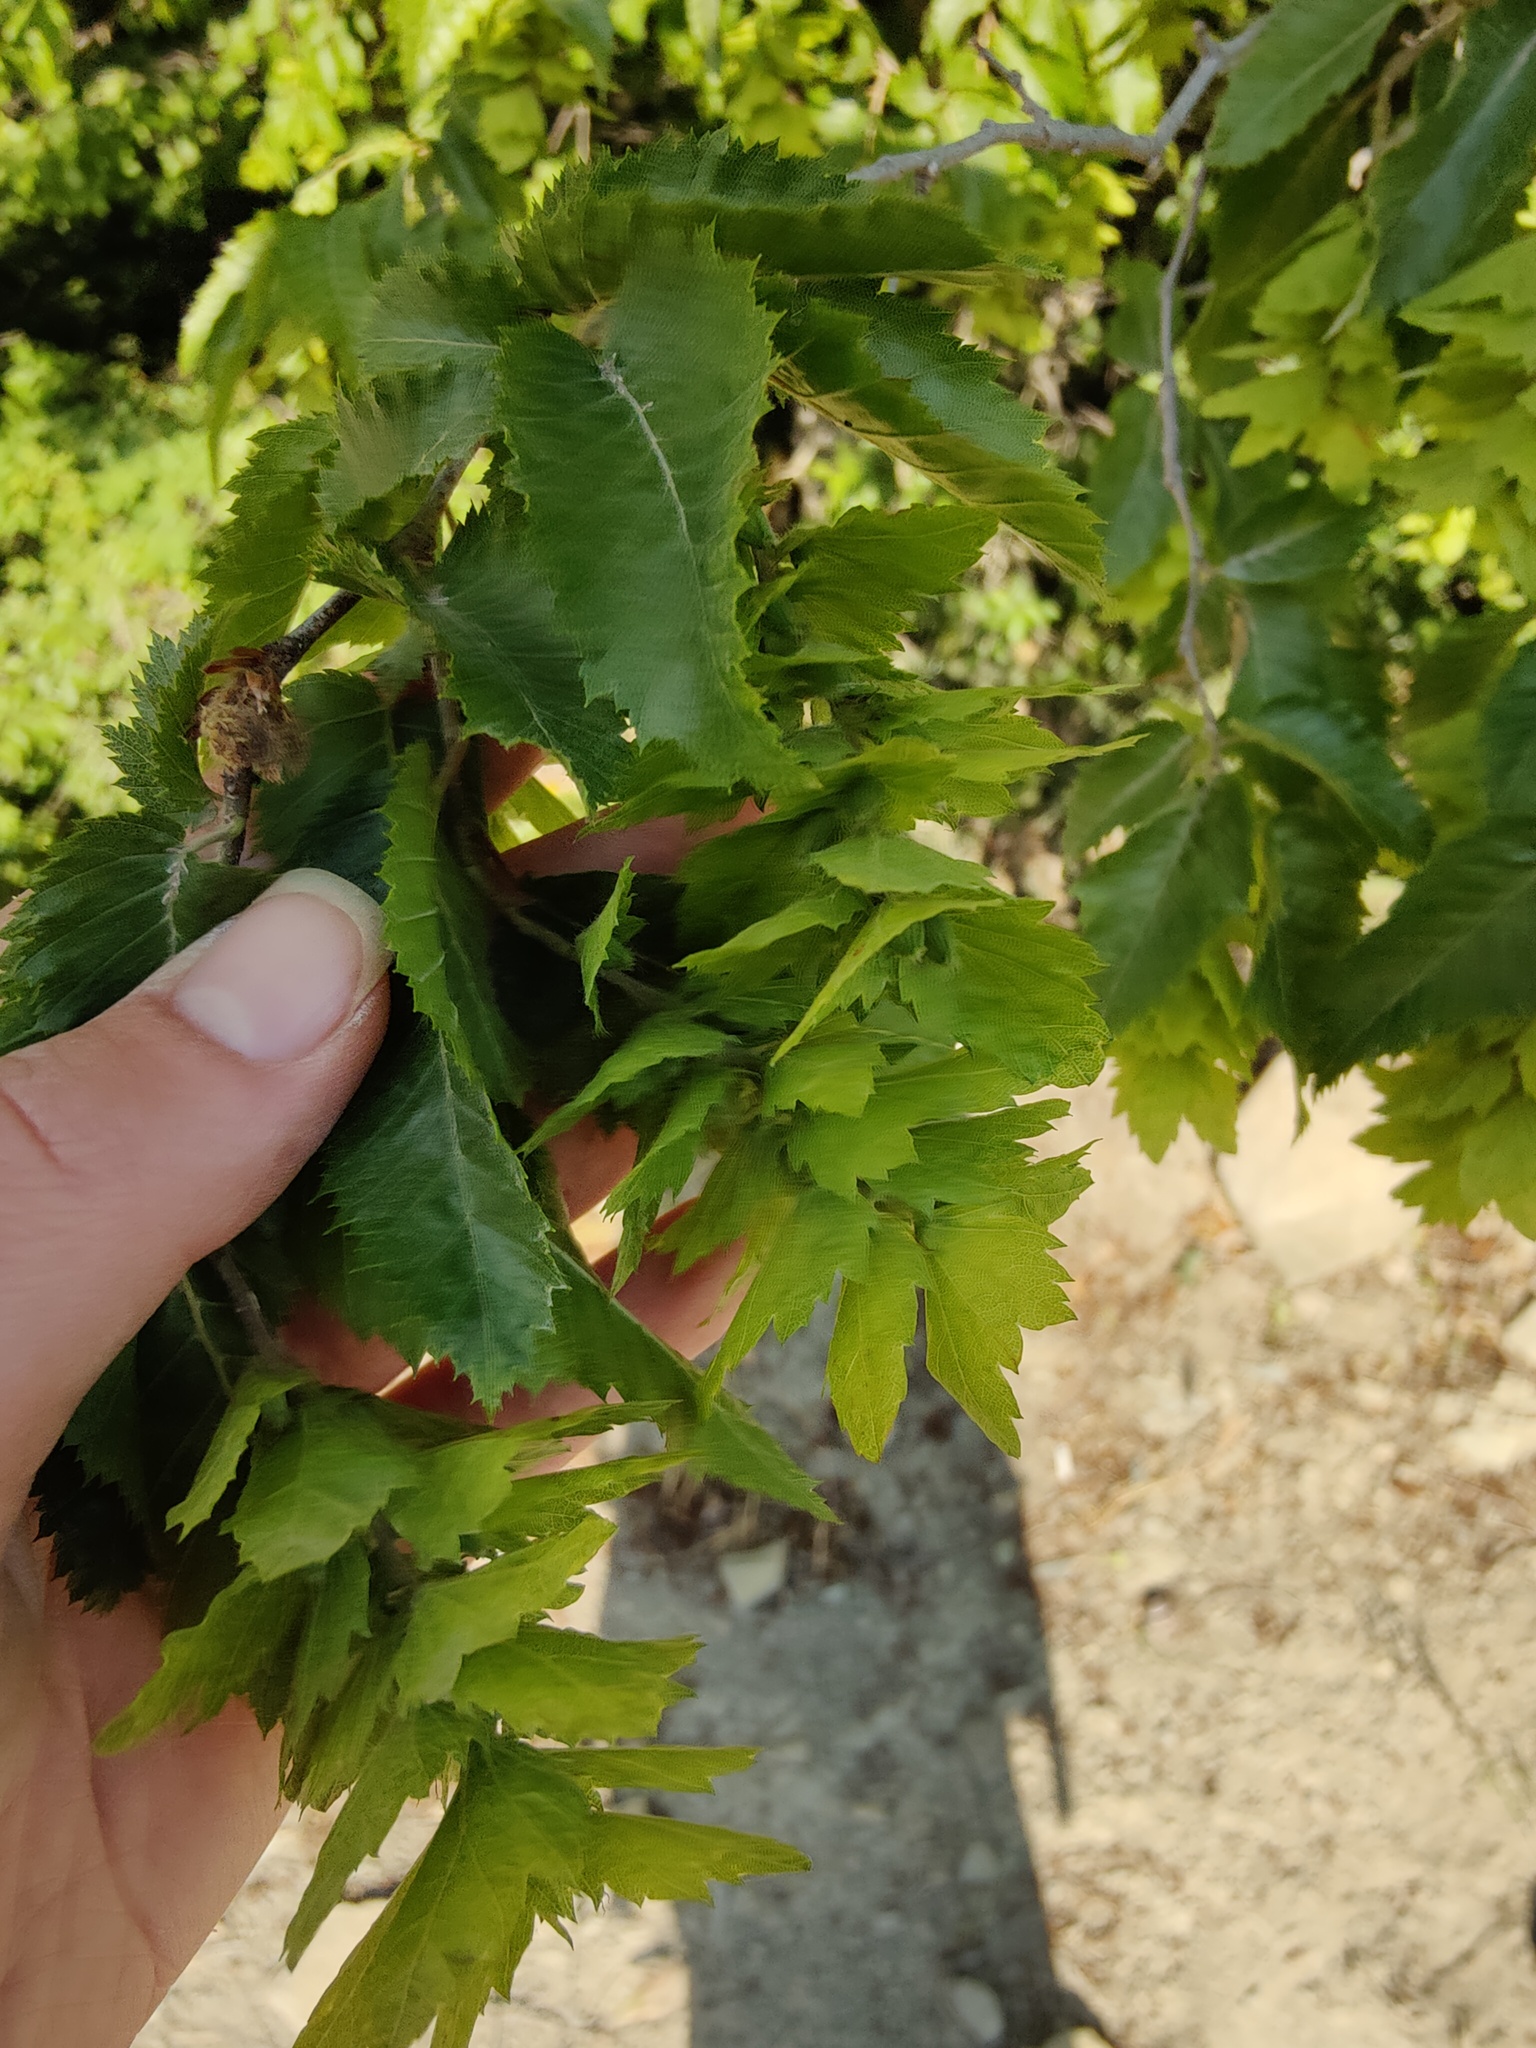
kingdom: Plantae
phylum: Tracheophyta
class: Magnoliopsida
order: Fagales
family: Betulaceae
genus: Carpinus
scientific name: Carpinus orientalis
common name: Eastern hornbeam
